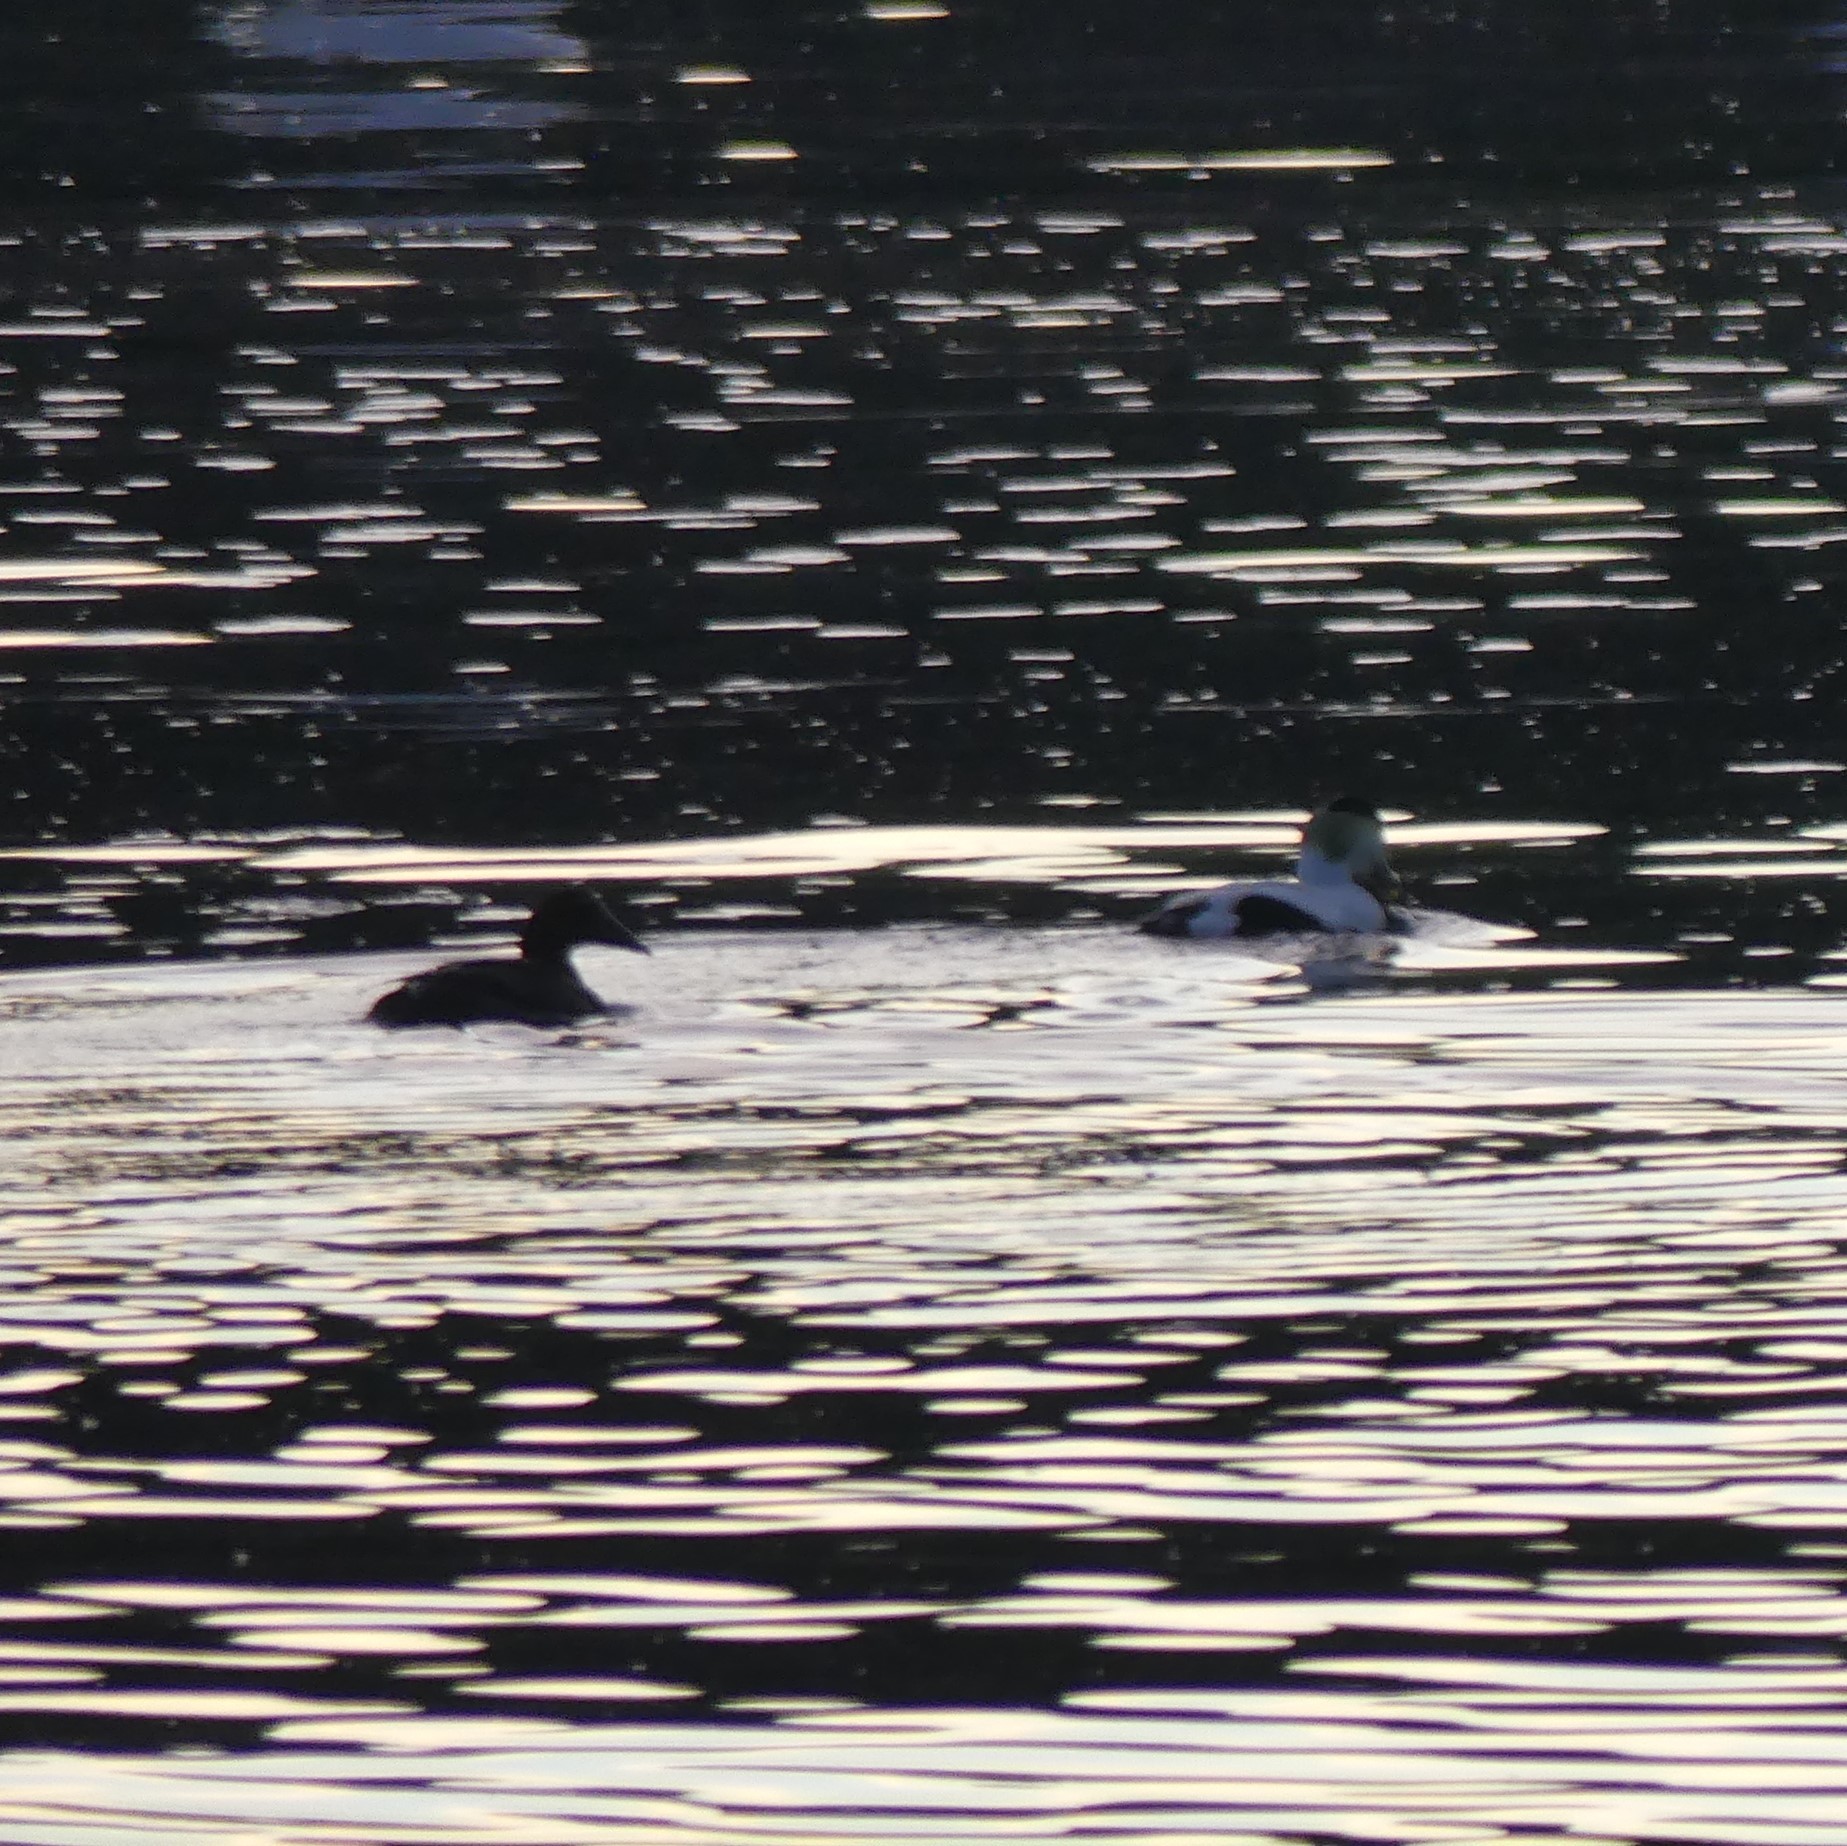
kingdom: Animalia
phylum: Chordata
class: Aves
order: Anseriformes
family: Anatidae
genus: Somateria
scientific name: Somateria mollissima
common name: Common eider
